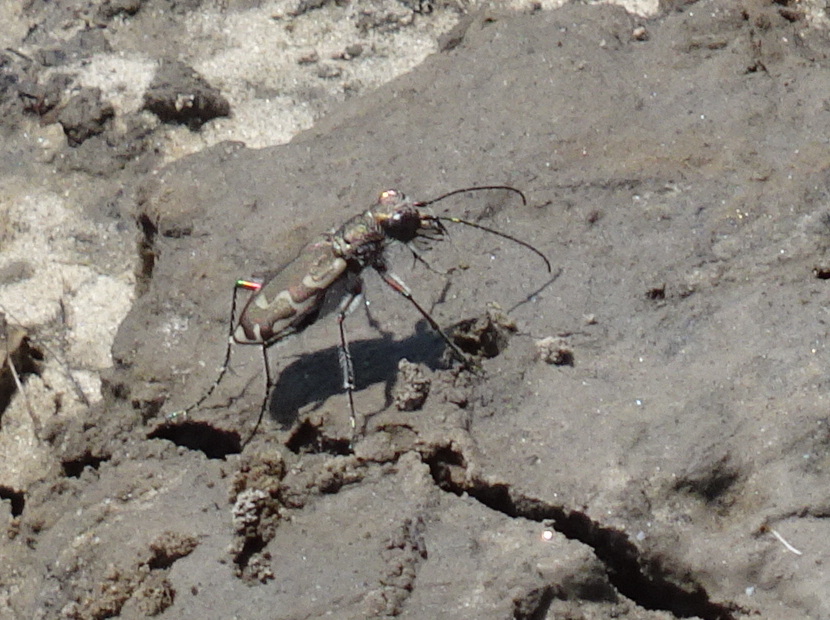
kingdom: Animalia
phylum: Arthropoda
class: Insecta
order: Coleoptera
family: Carabidae
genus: Cicindela
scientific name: Cicindela repanda
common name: Bronzed tiger beetle
